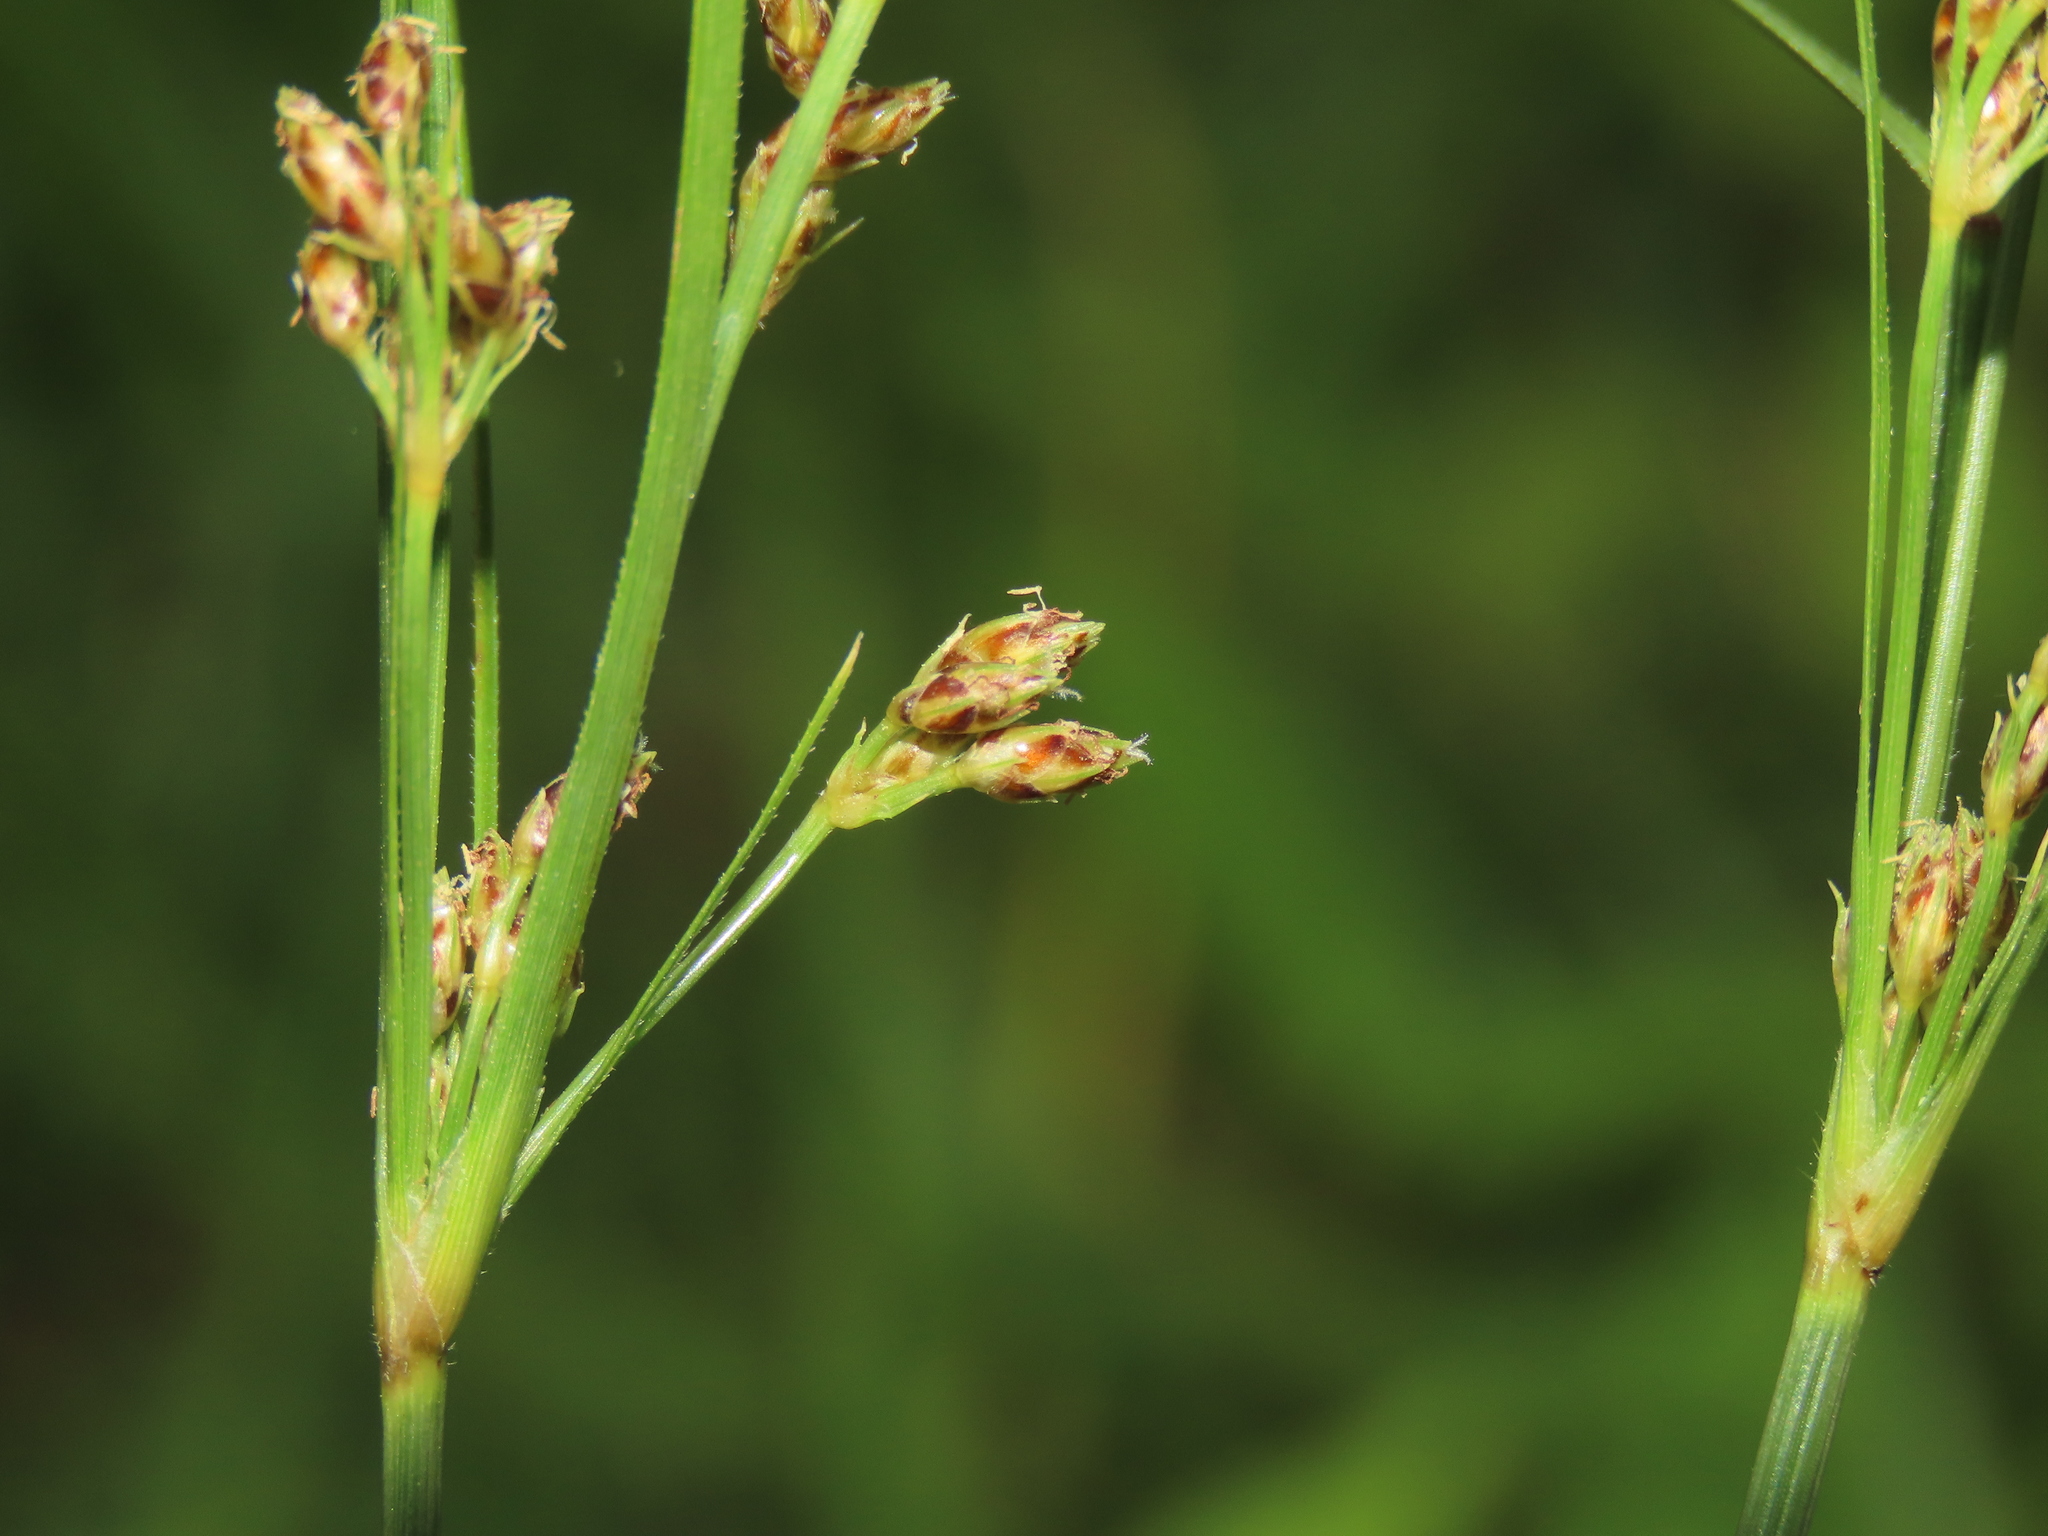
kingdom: Plantae
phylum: Tracheophyta
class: Liliopsida
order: Poales
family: Cyperaceae
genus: Fimbristylis
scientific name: Fimbristylis dichotoma
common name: Forked fimbry
